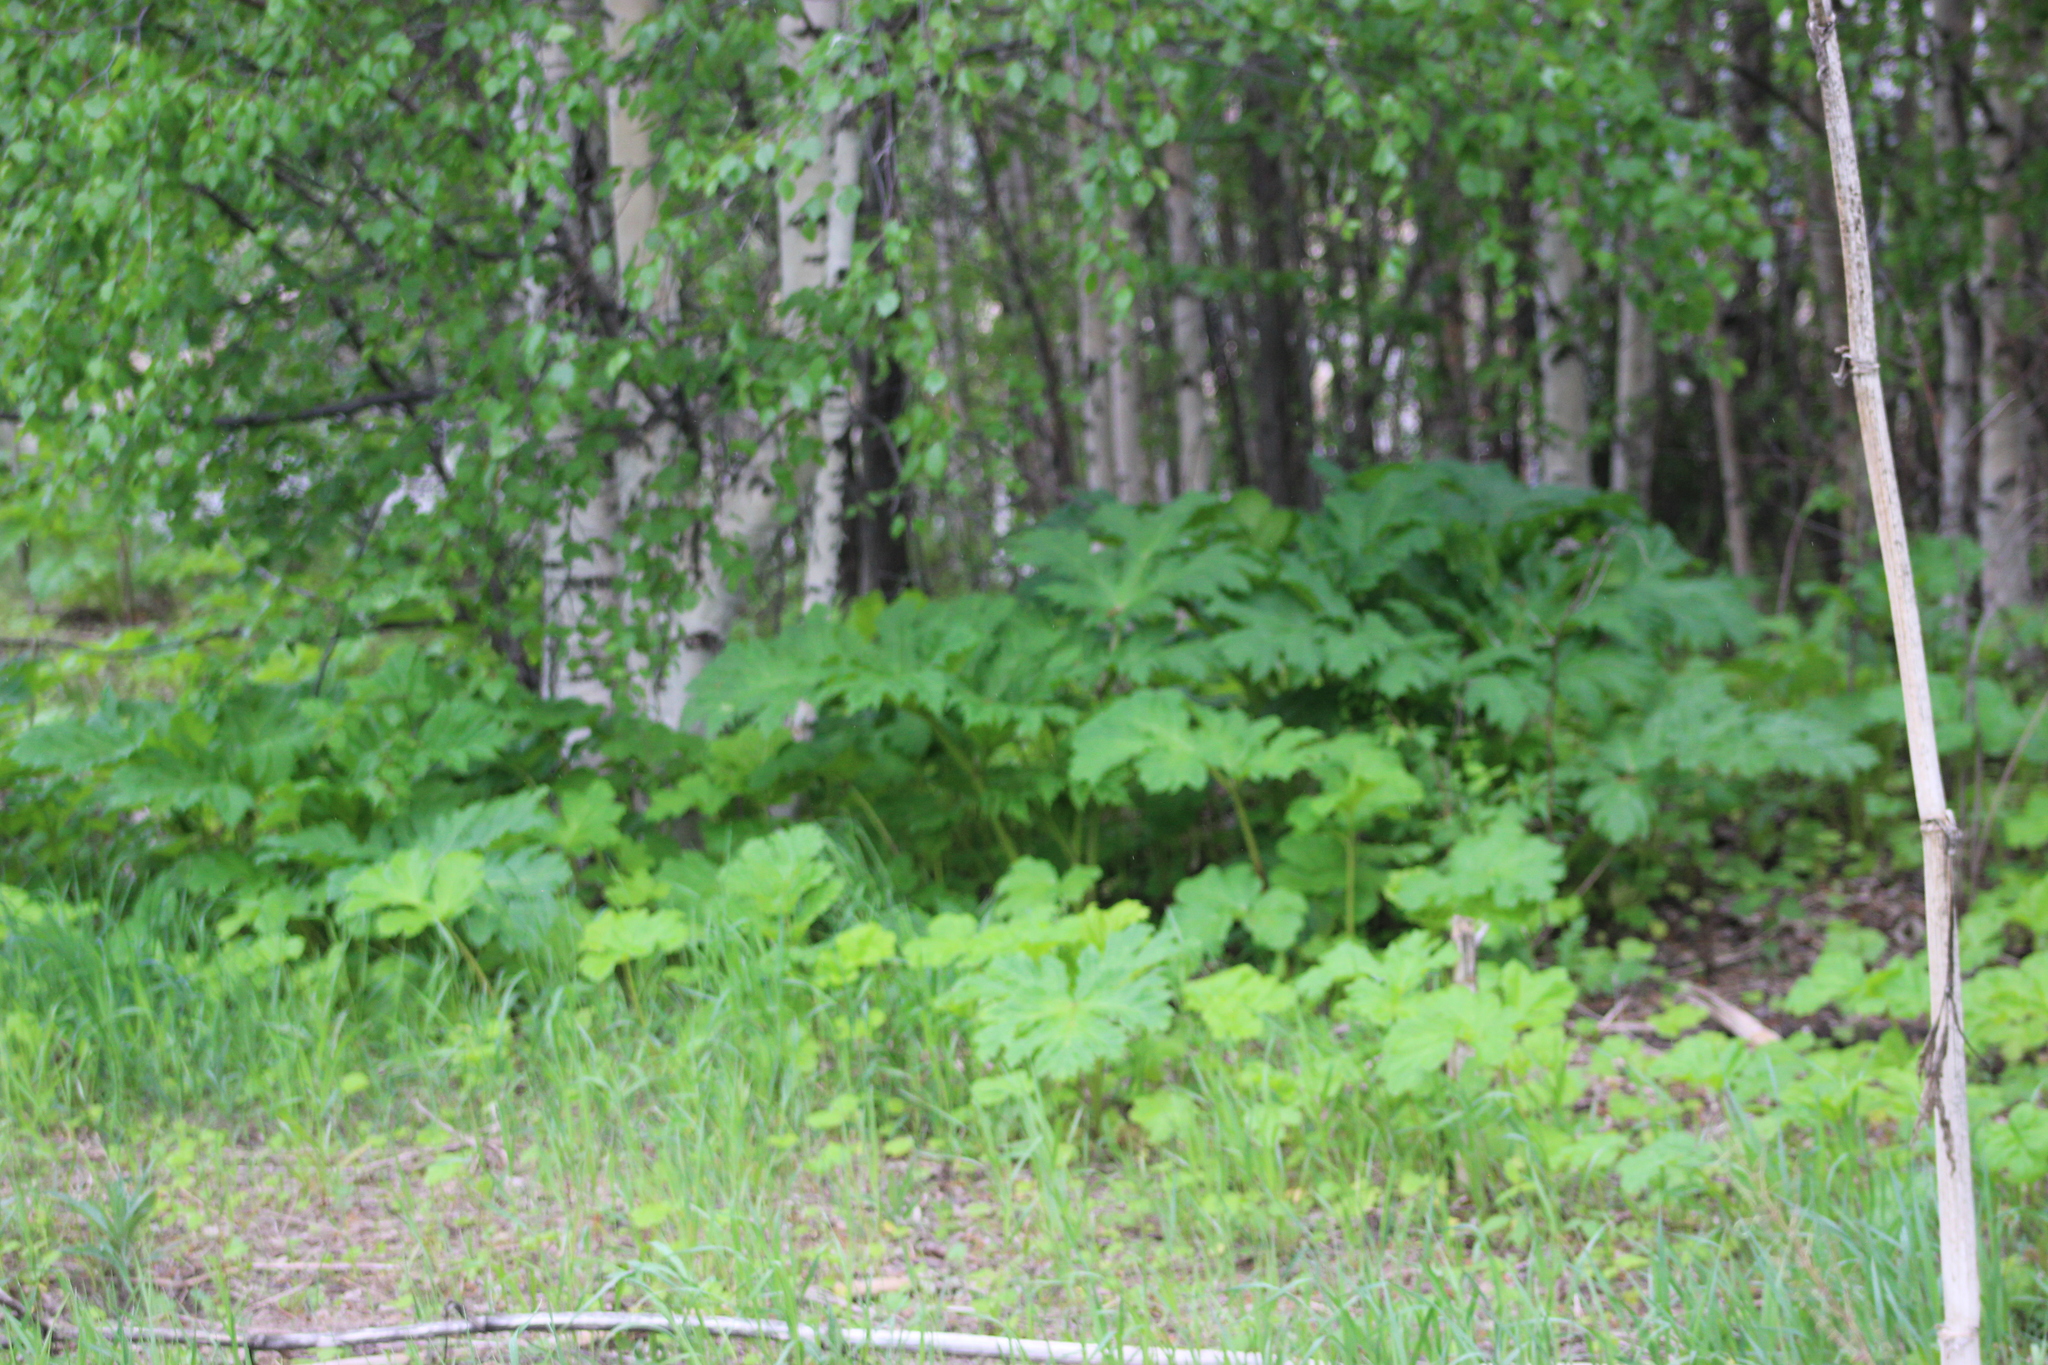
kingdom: Plantae
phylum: Tracheophyta
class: Magnoliopsida
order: Apiales
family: Apiaceae
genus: Heracleum
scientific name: Heracleum sosnowskyi
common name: Sosnowsky's hogweed
